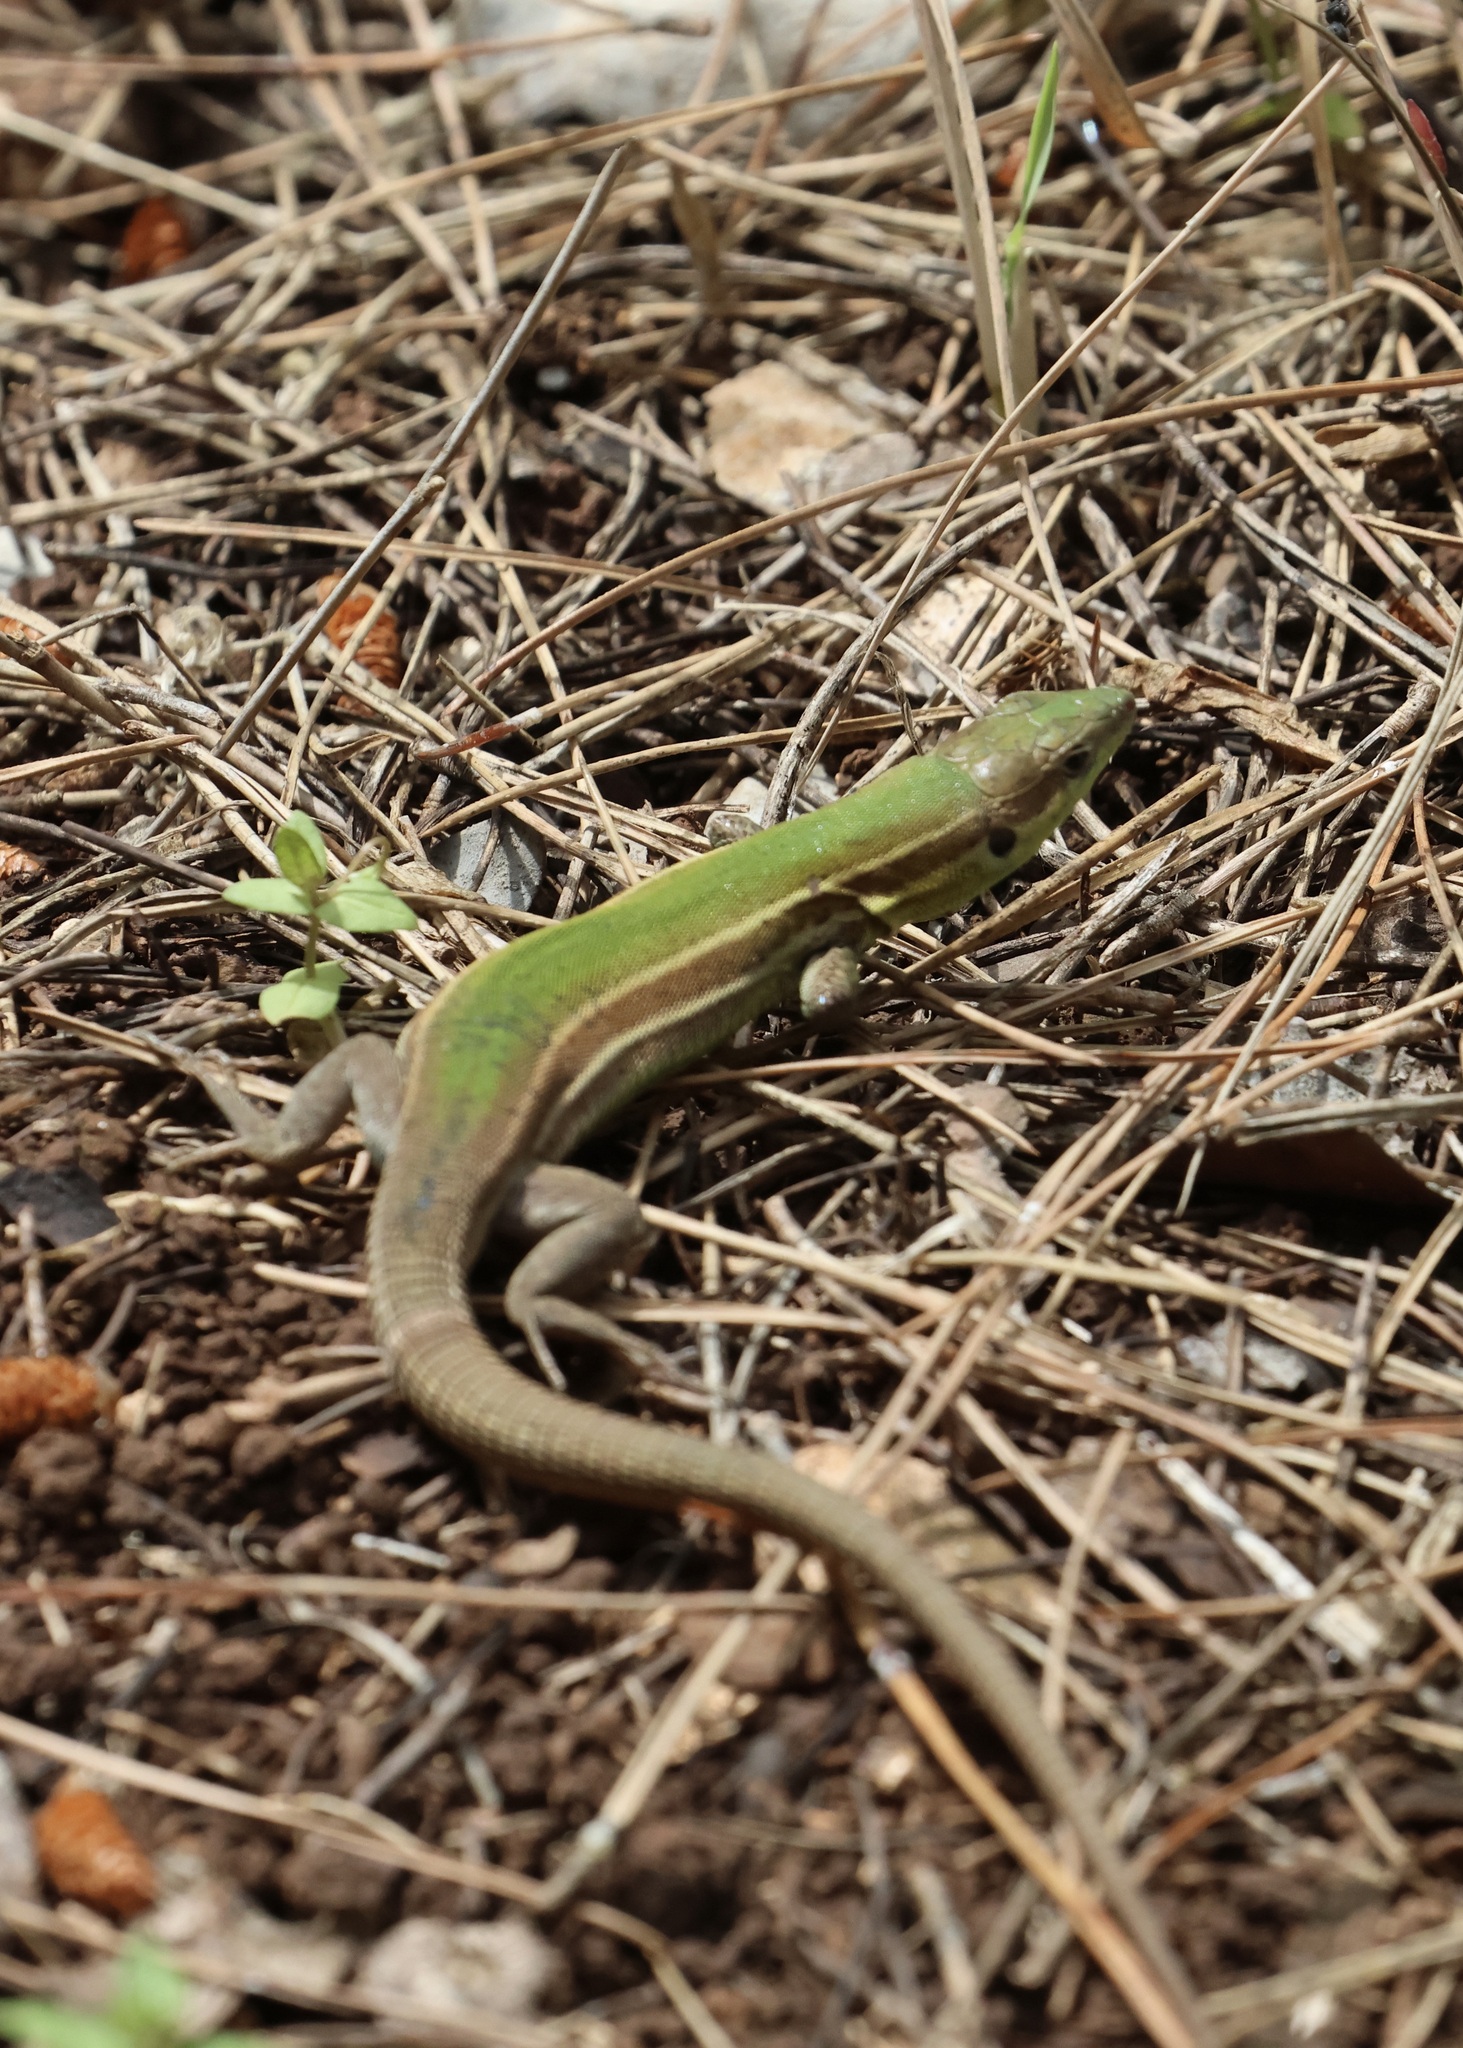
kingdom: Animalia
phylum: Chordata
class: Squamata
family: Lacertidae
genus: Podarcis
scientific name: Podarcis ionicus
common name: Ionian wall lizard
